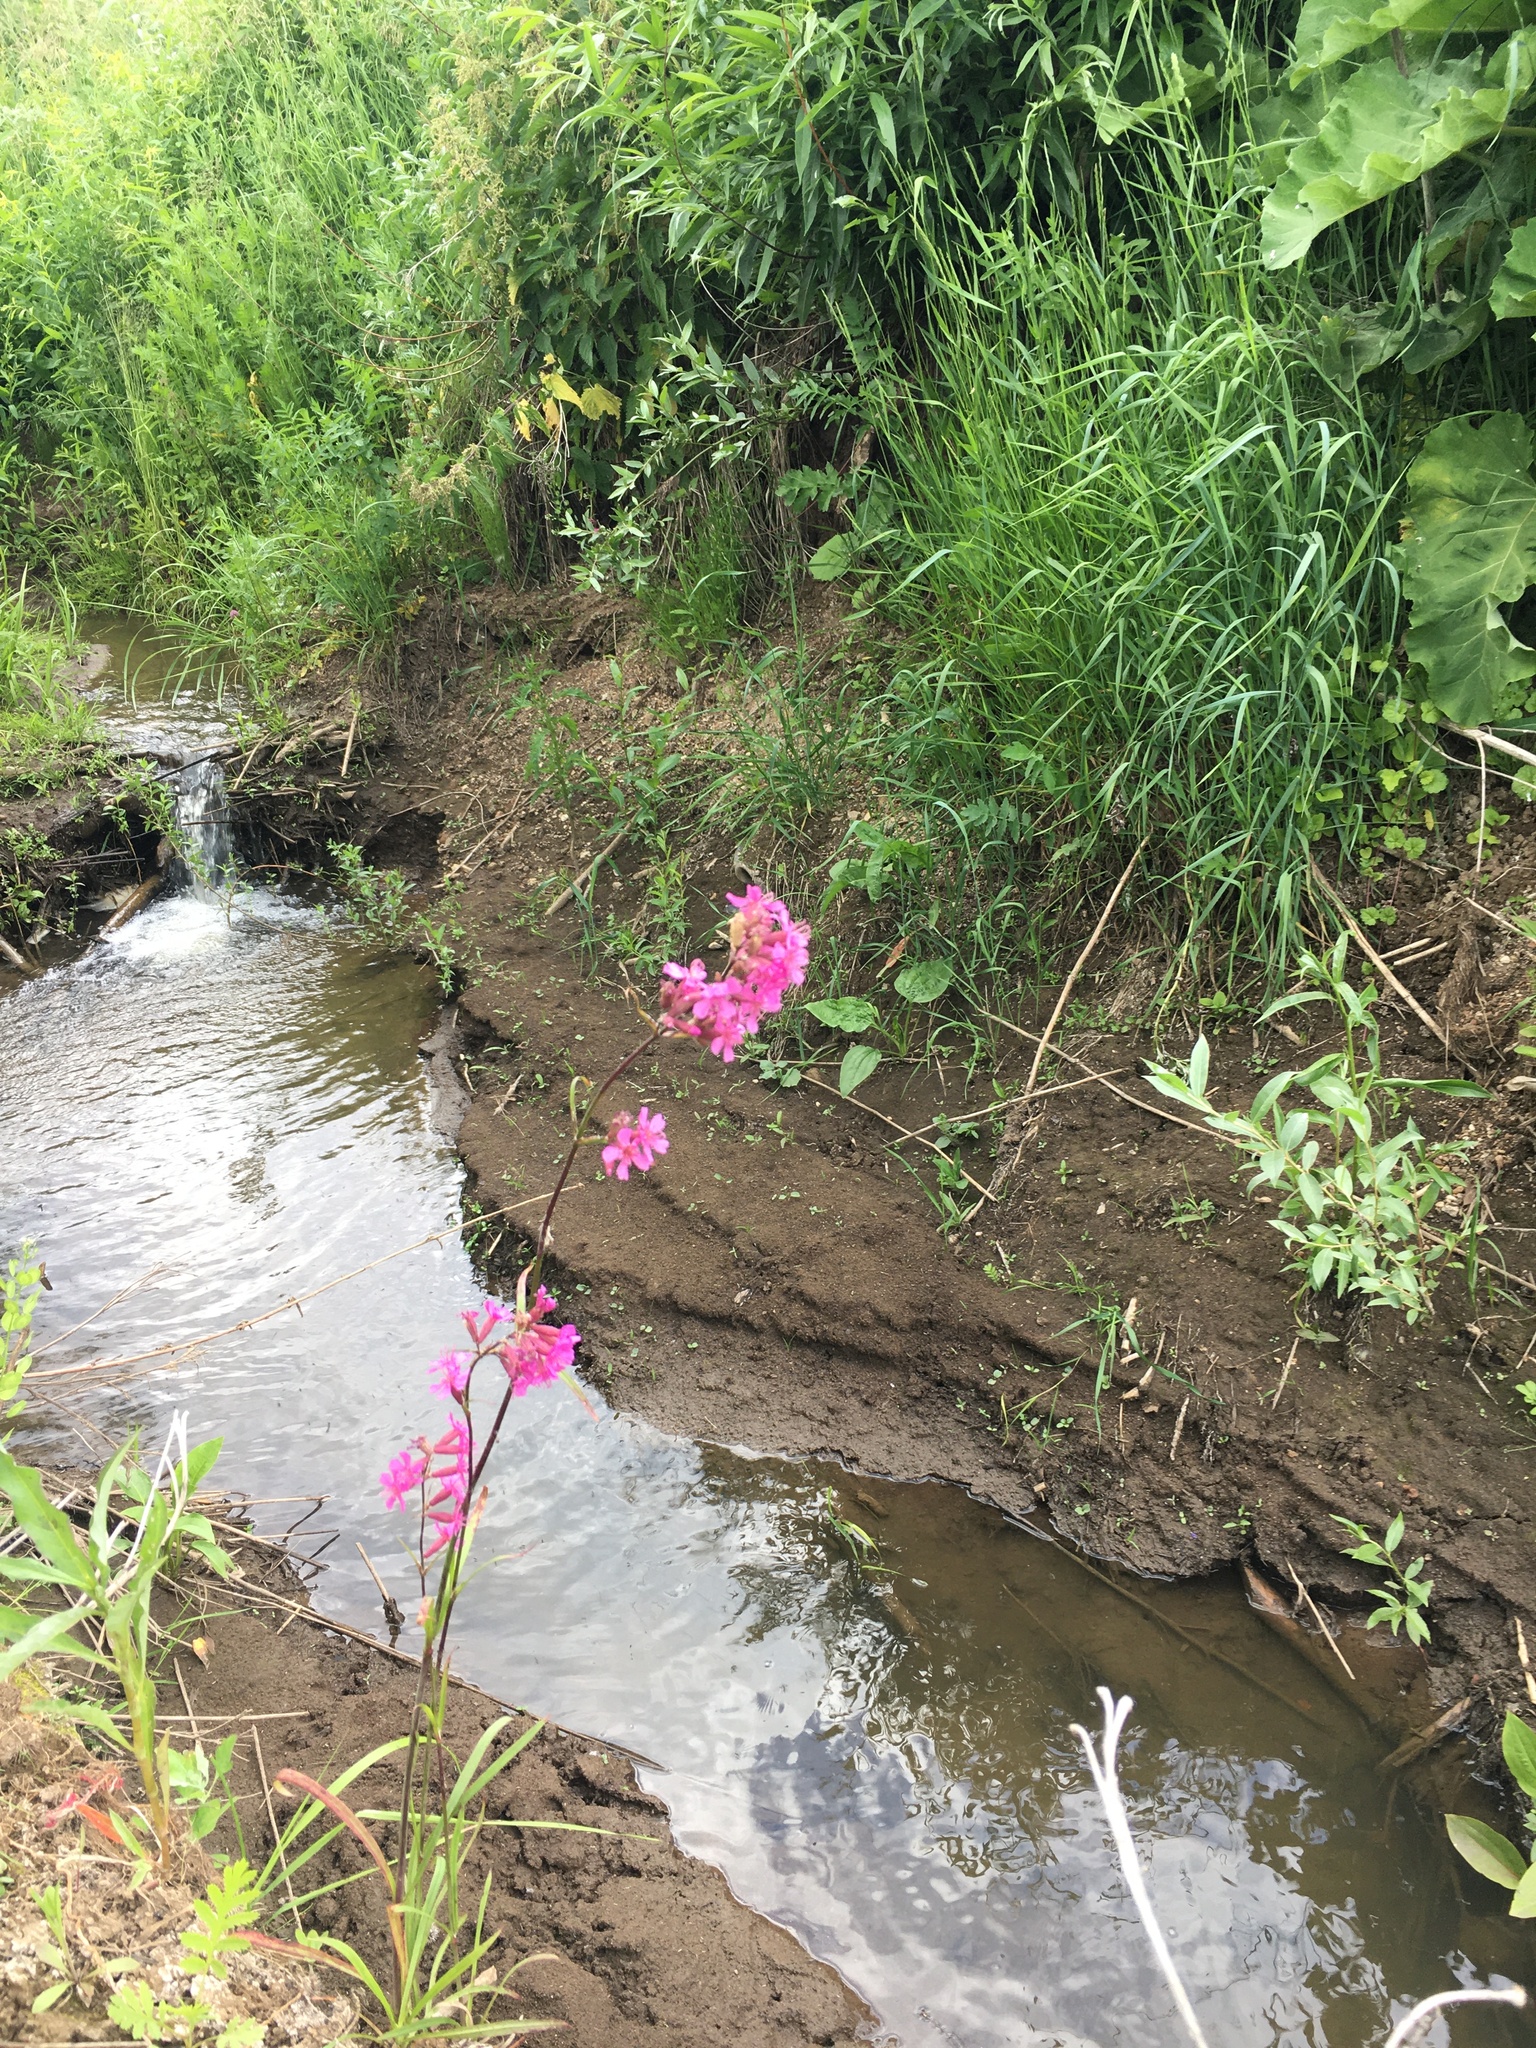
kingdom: Plantae
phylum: Tracheophyta
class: Magnoliopsida
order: Caryophyllales
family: Caryophyllaceae
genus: Viscaria
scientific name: Viscaria vulgaris
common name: Clammy campion
